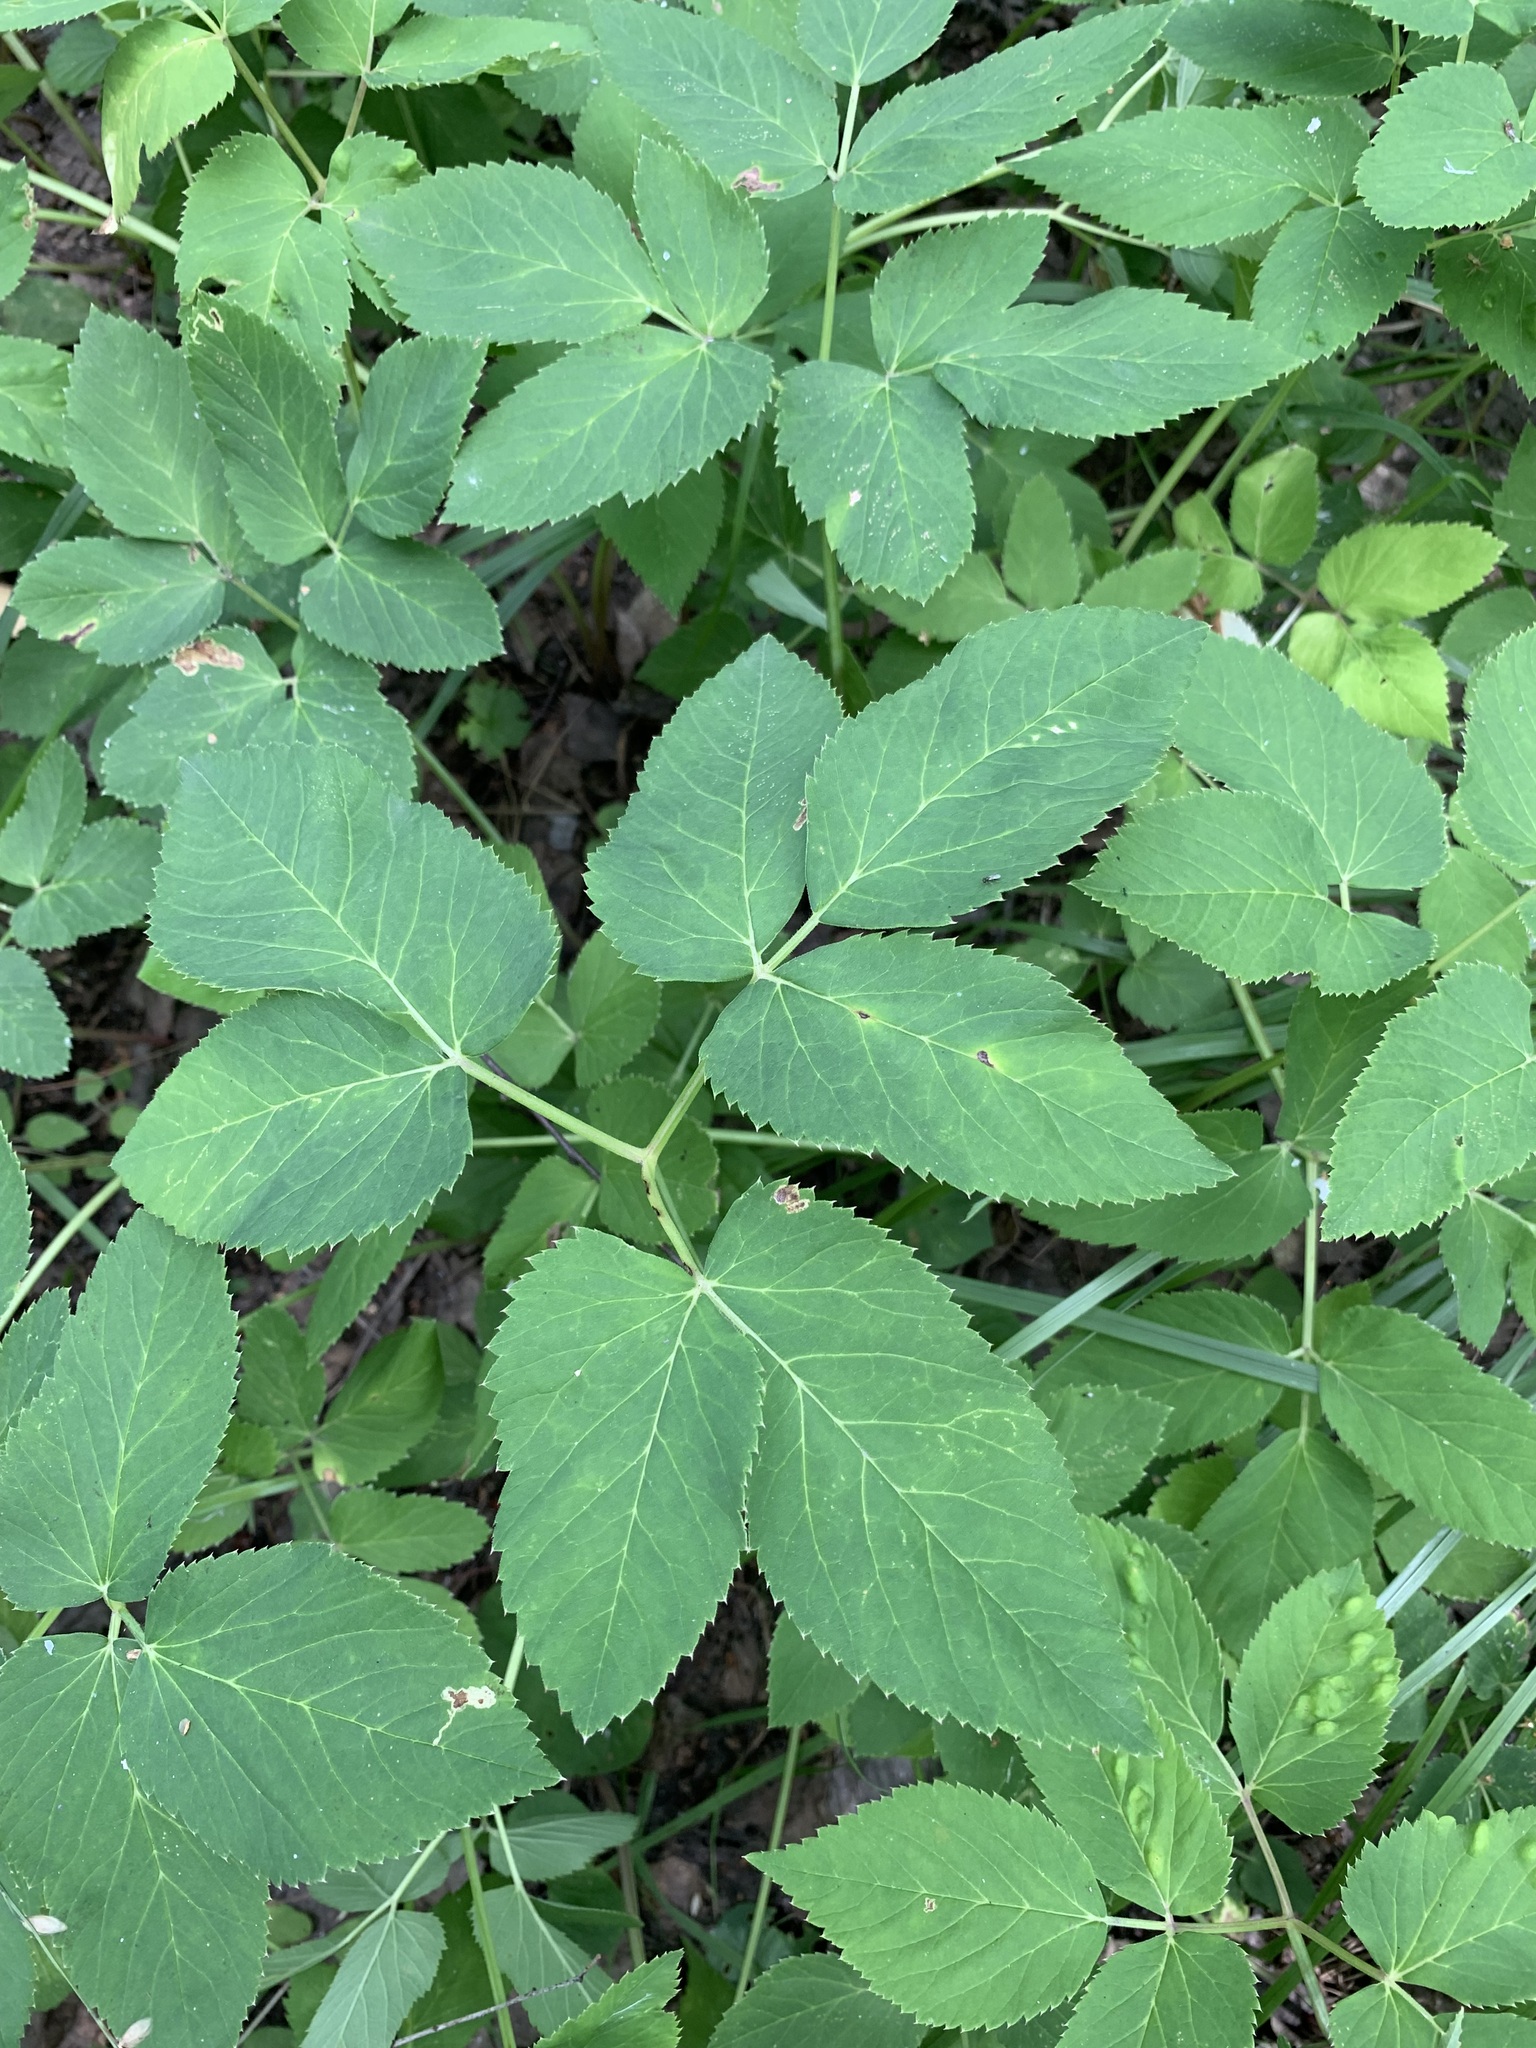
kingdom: Plantae
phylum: Tracheophyta
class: Magnoliopsida
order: Apiales
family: Apiaceae
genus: Aegopodium
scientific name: Aegopodium podagraria
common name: Ground-elder
